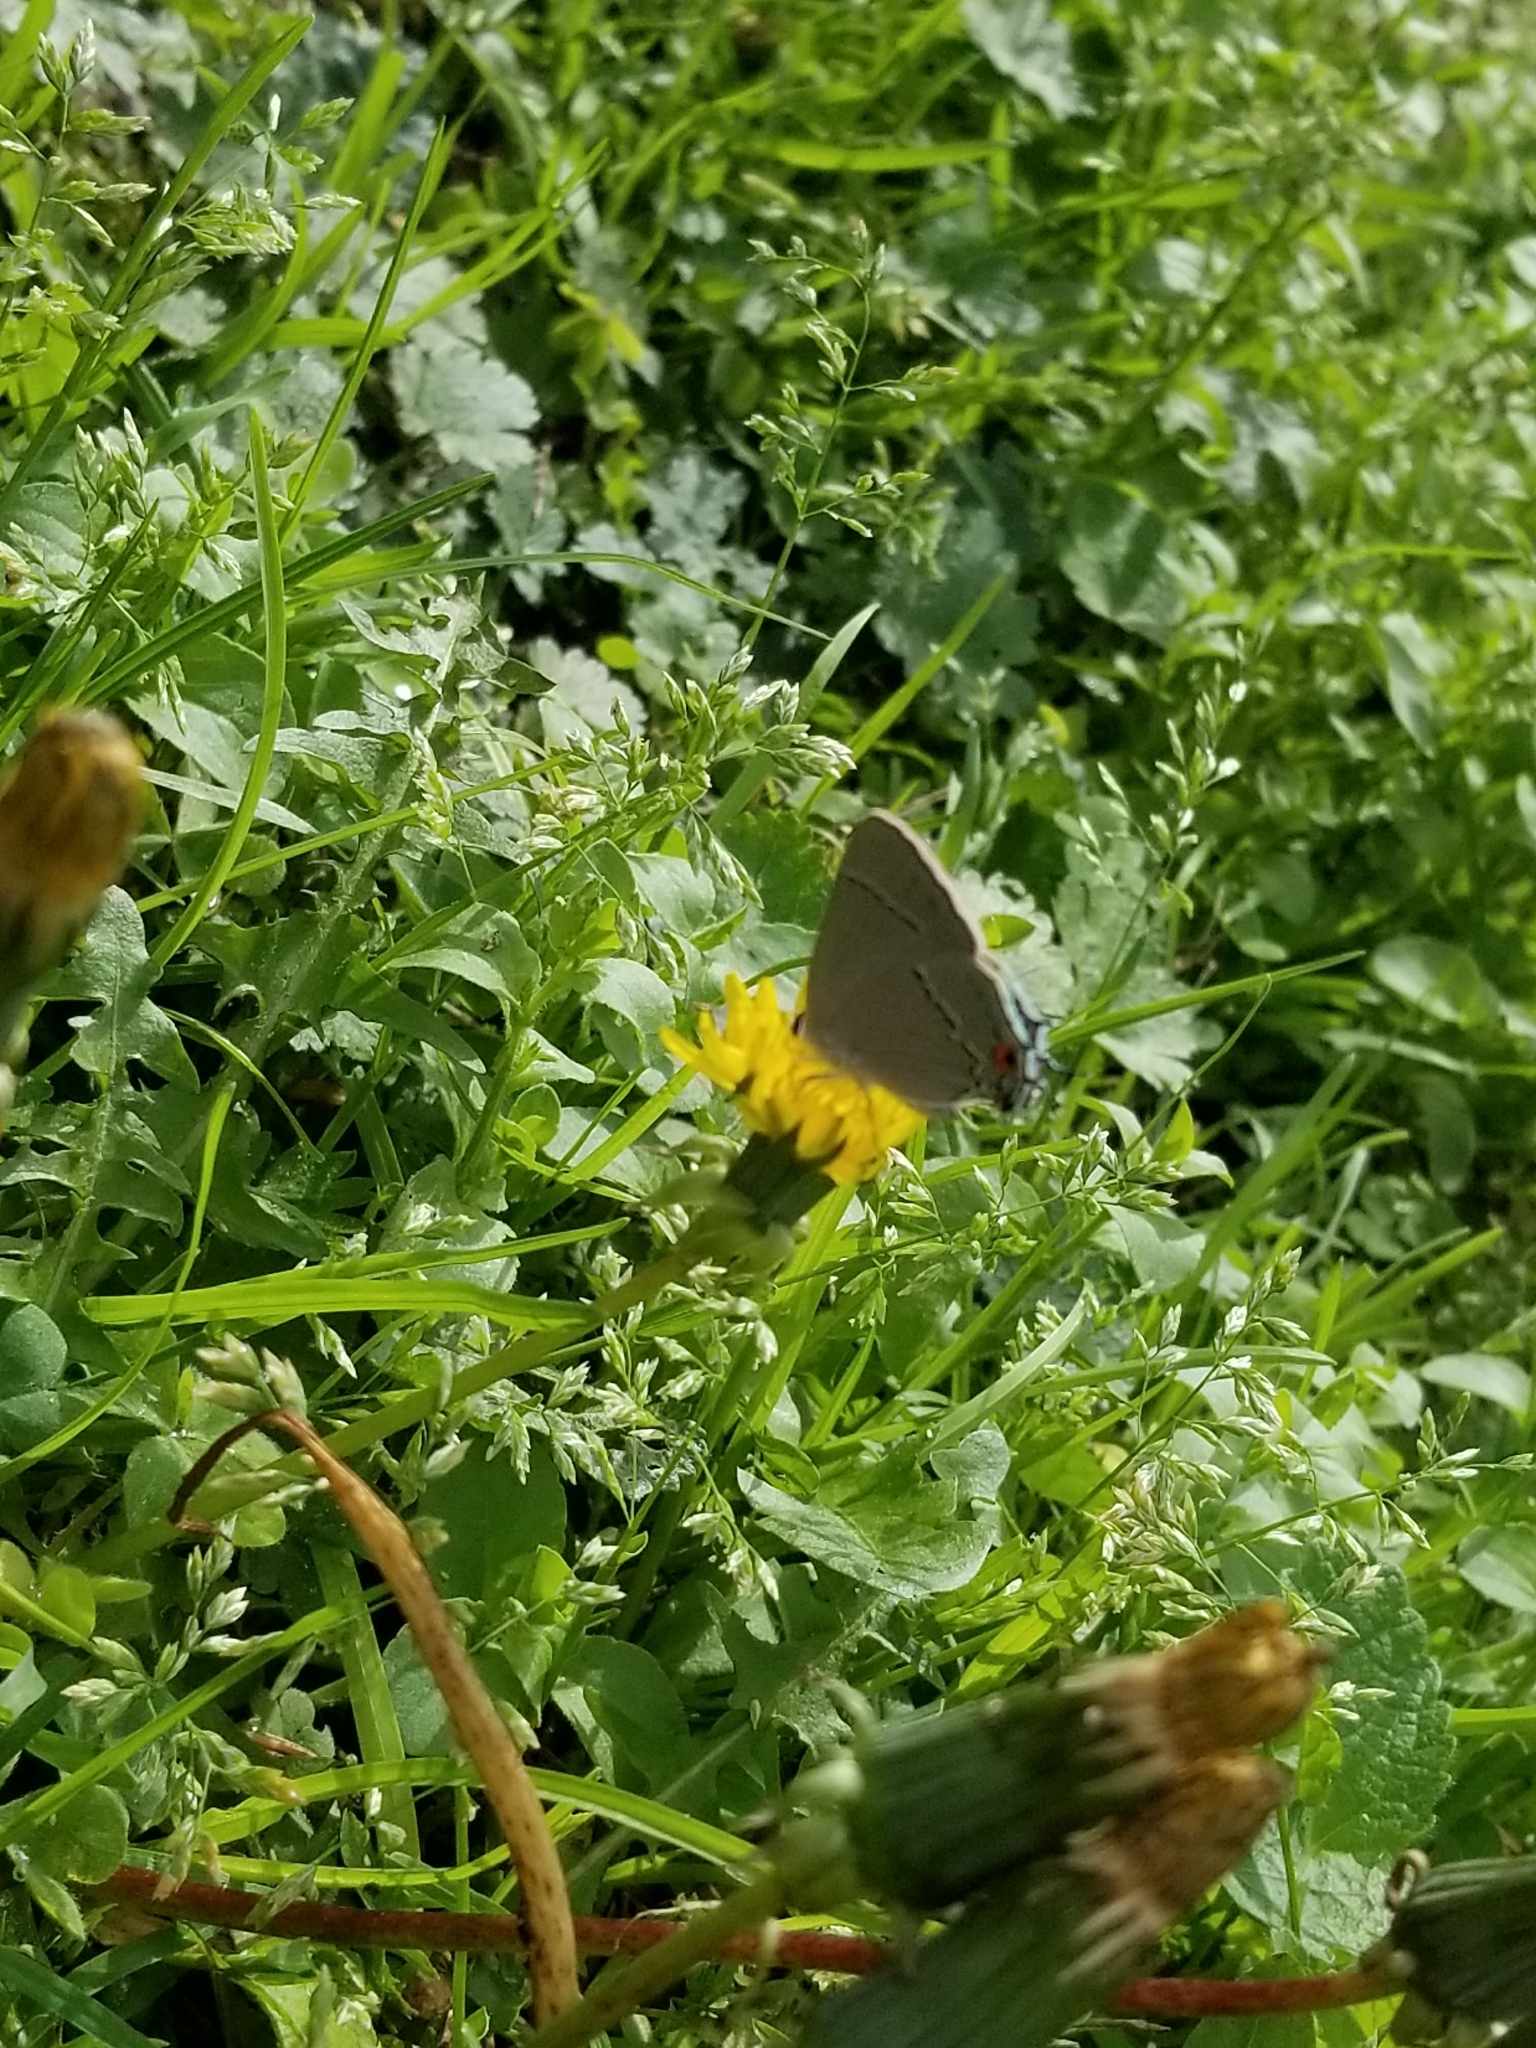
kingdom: Animalia
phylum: Arthropoda
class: Insecta
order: Lepidoptera
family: Lycaenidae
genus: Strymon
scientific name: Strymon melinus
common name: Gray hairstreak
